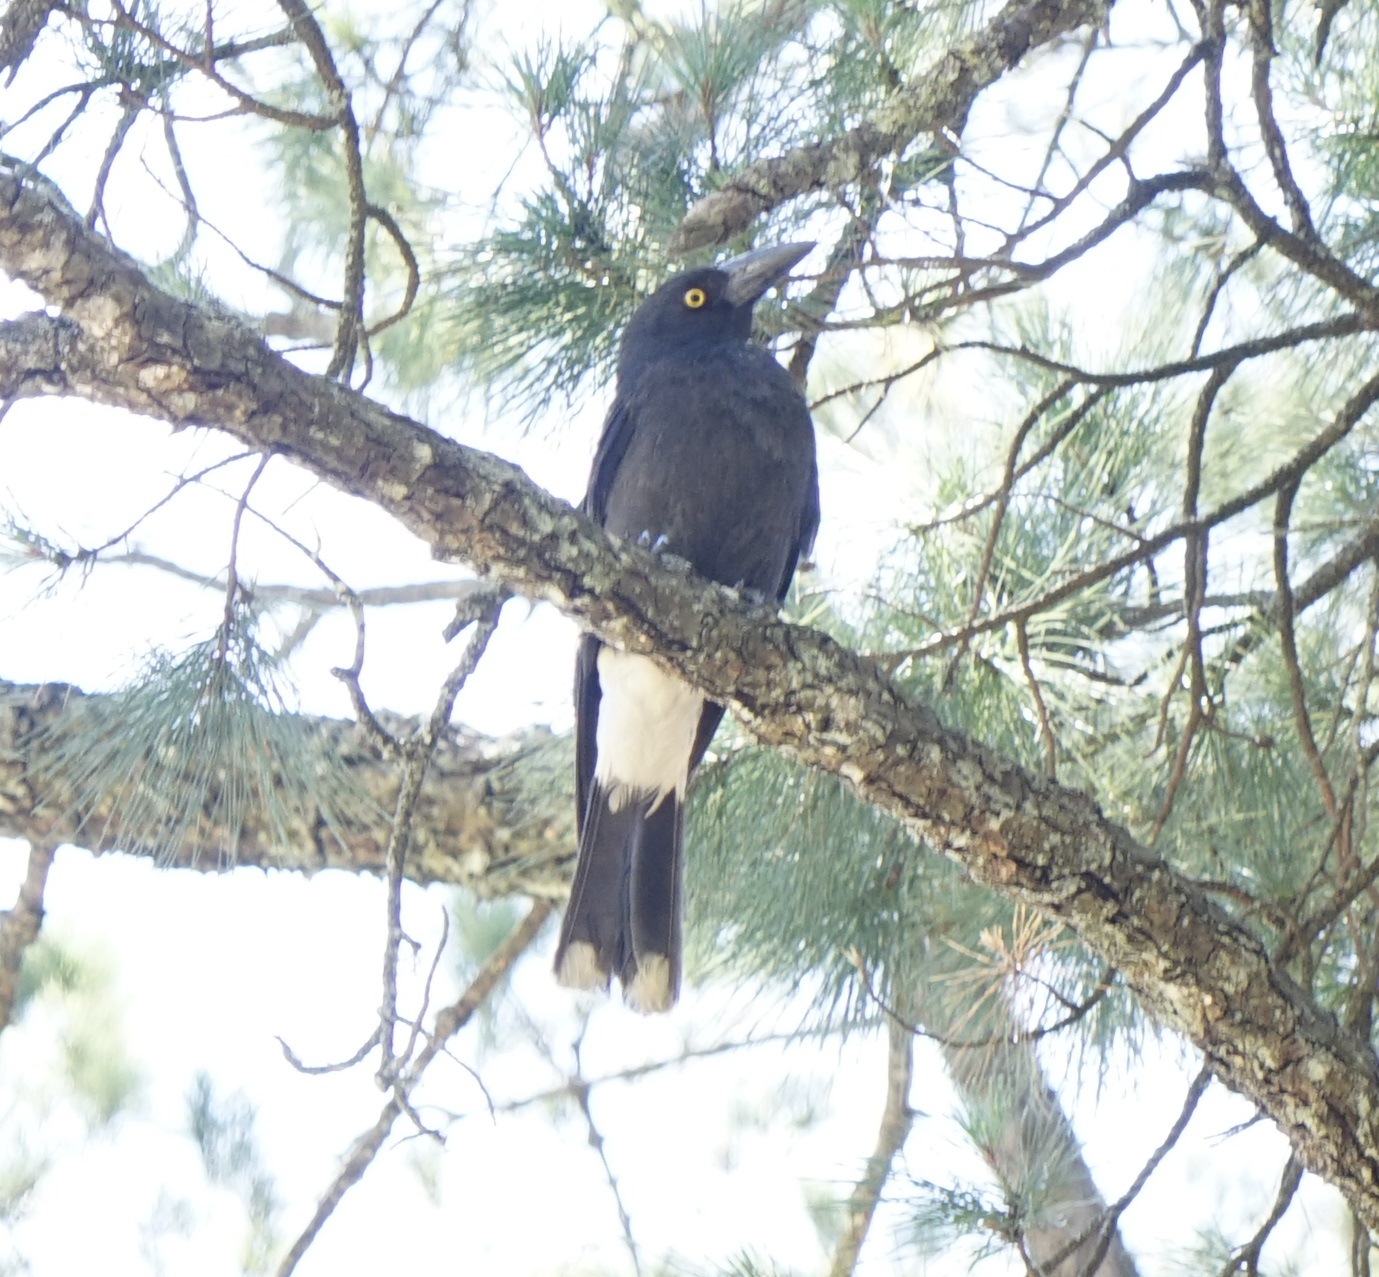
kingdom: Animalia
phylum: Chordata
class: Aves
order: Passeriformes
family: Cracticidae
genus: Strepera
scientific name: Strepera graculina
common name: Pied currawong
